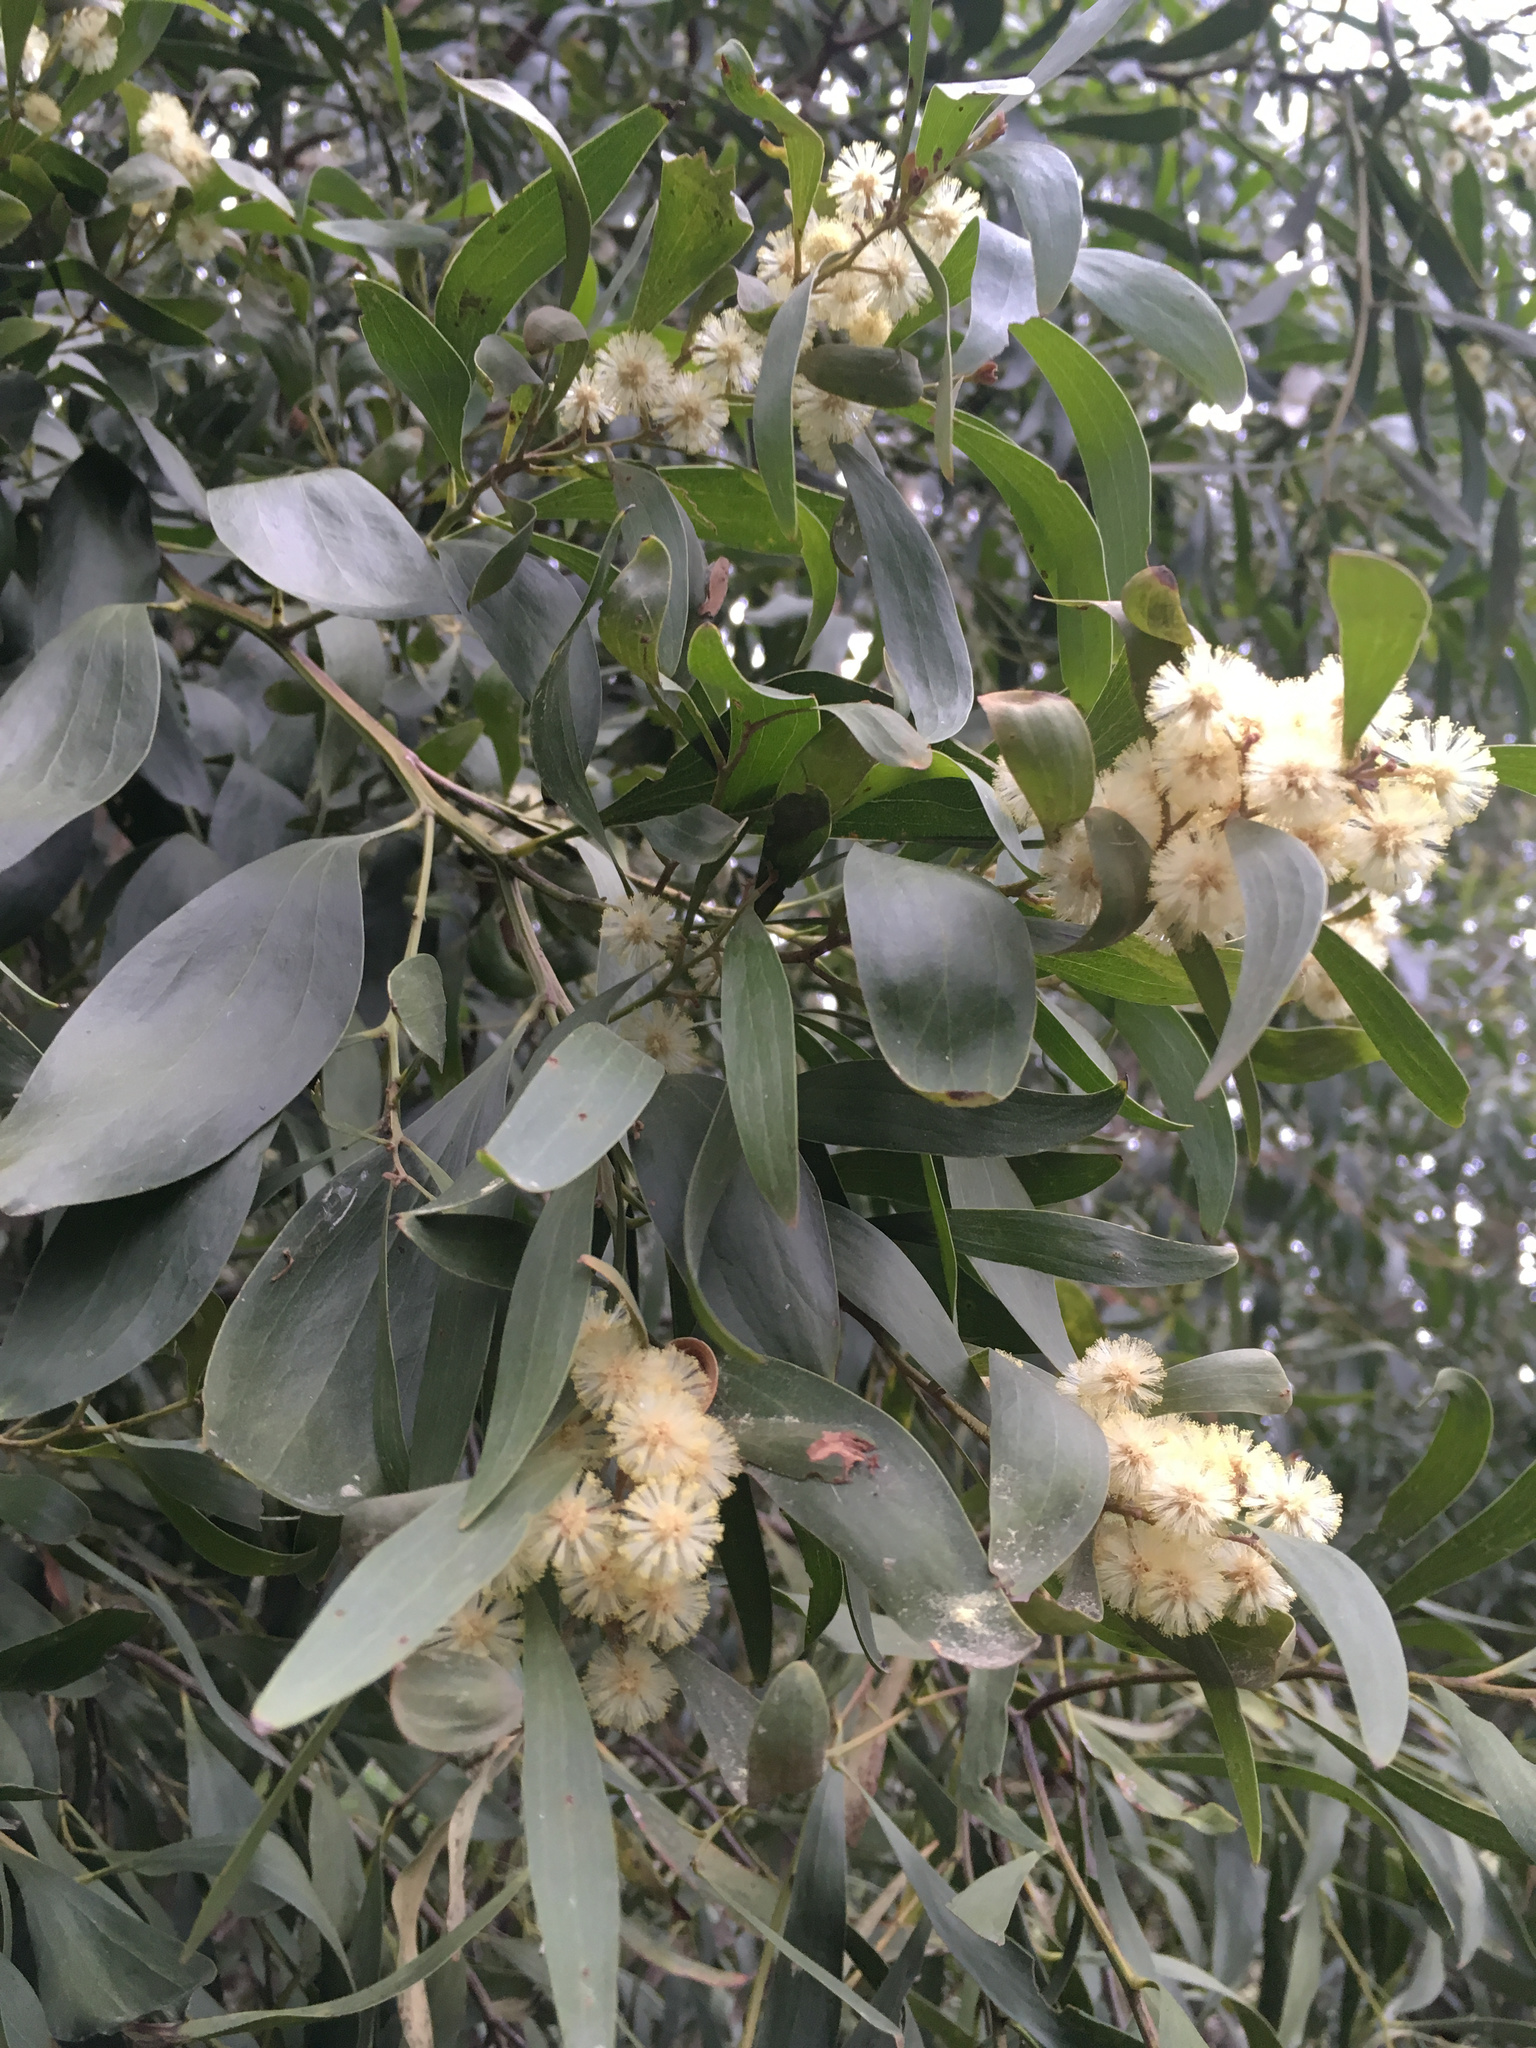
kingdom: Plantae
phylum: Tracheophyta
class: Magnoliopsida
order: Fabales
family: Fabaceae
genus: Acacia
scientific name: Acacia melanoxylon
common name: Blackwood
